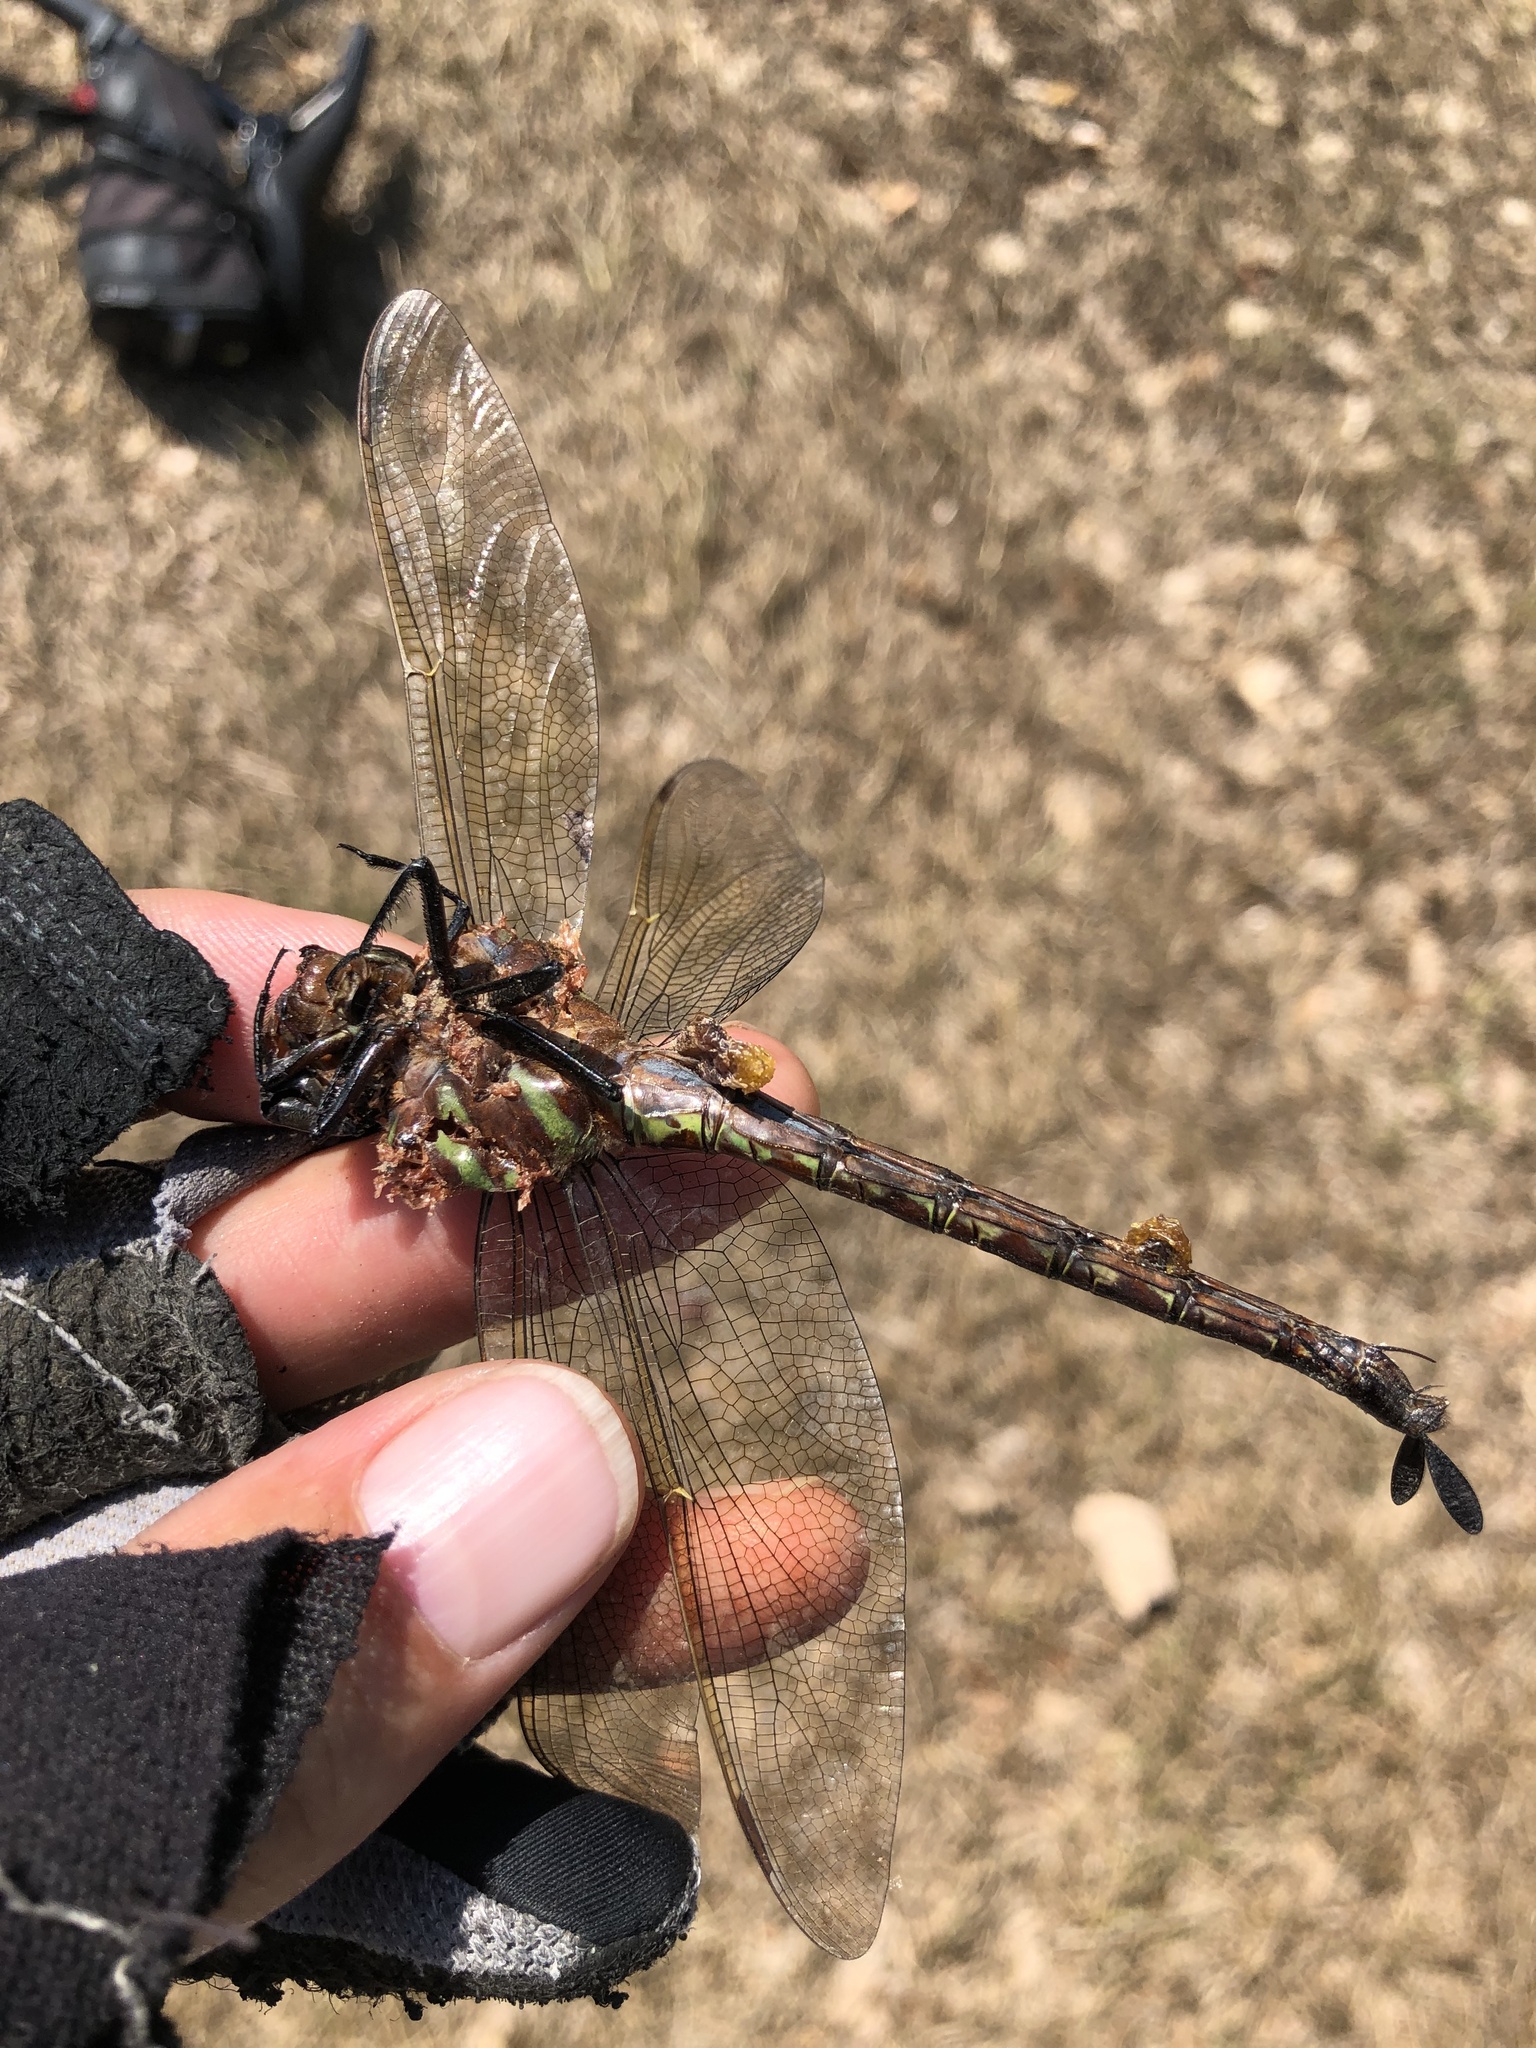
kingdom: Animalia
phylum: Arthropoda
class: Insecta
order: Odonata
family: Aeshnidae
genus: Epiaeschna
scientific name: Epiaeschna heros
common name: Swamp darner
